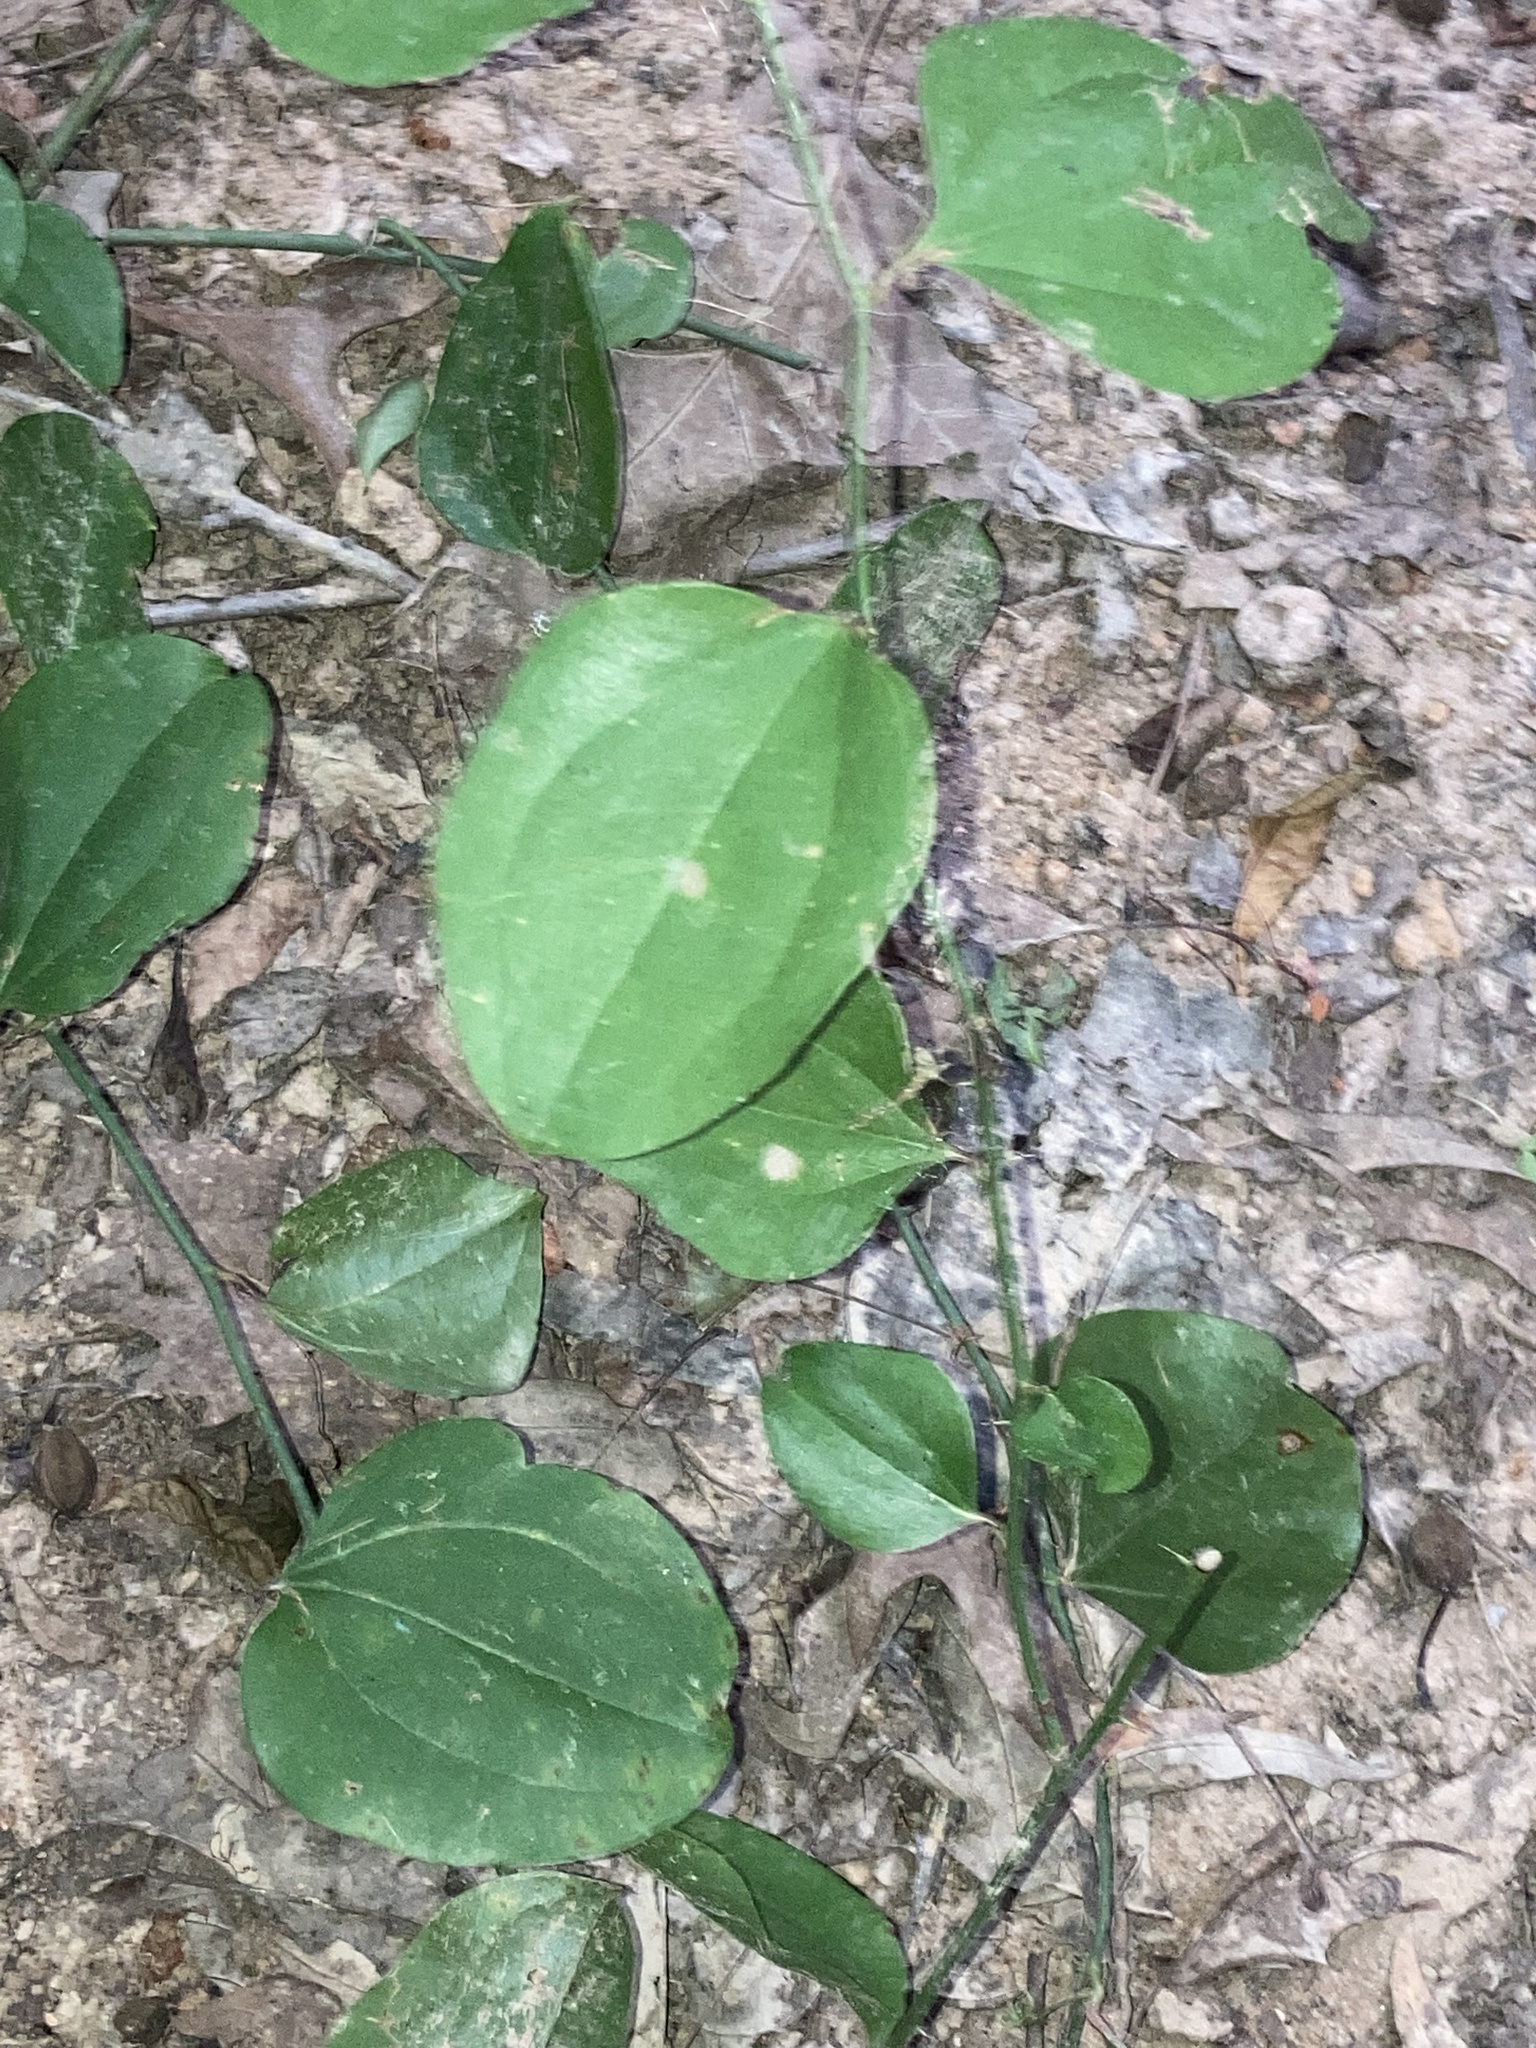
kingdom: Plantae
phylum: Tracheophyta
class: Liliopsida
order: Liliales
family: Smilacaceae
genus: Smilax
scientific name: Smilax rotundifolia
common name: Bullbriar
